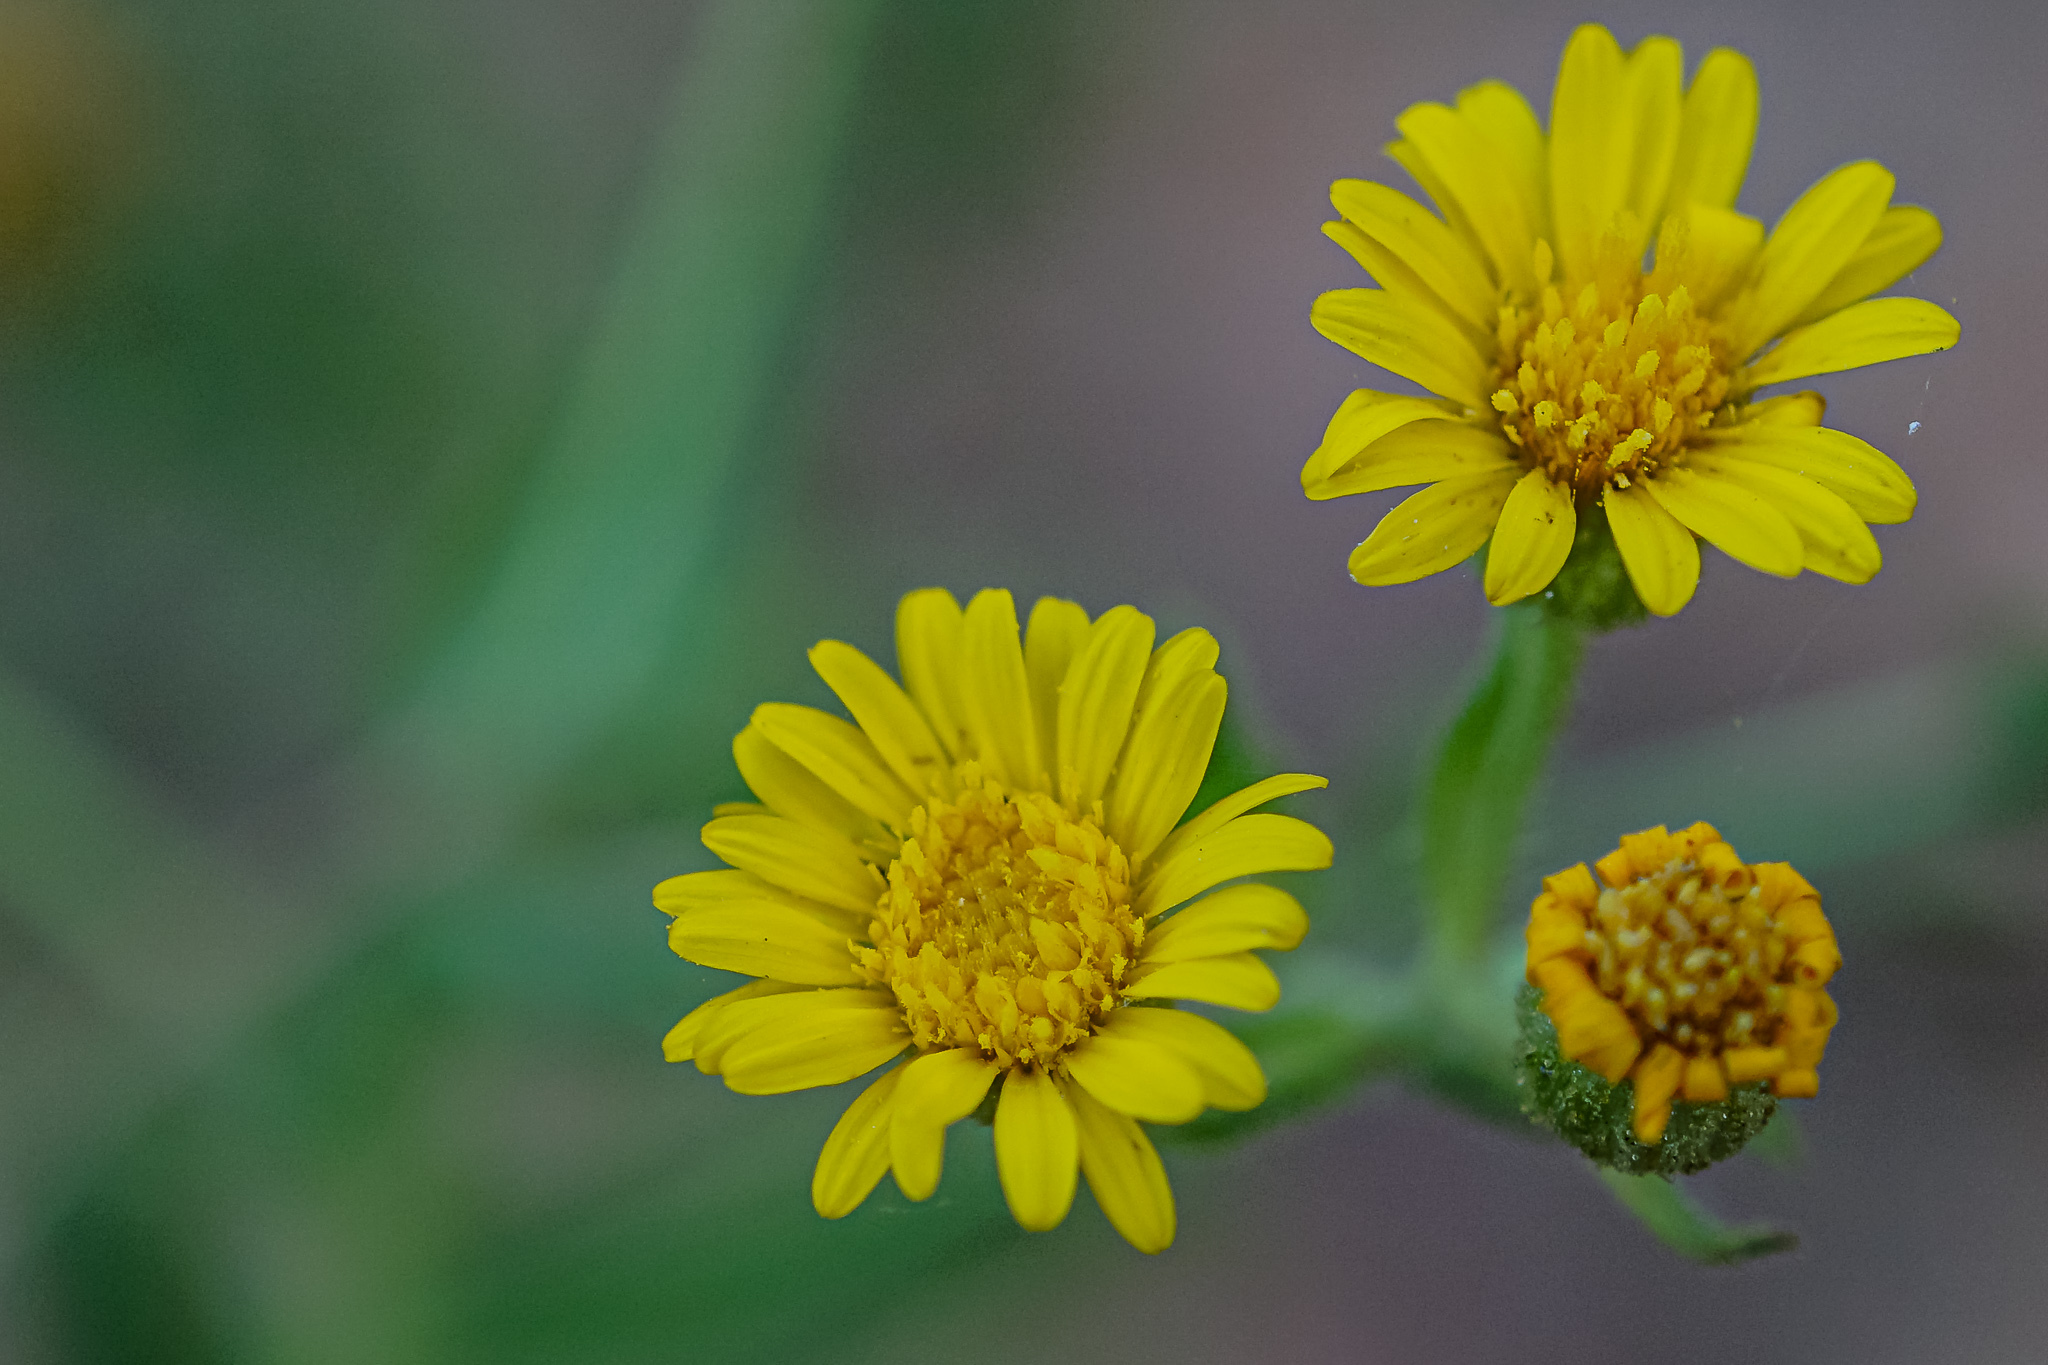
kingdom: Plantae
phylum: Tracheophyta
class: Magnoliopsida
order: Asterales
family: Asteraceae
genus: Heterotheca
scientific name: Heterotheca subaxillaris
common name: Camphorweed
